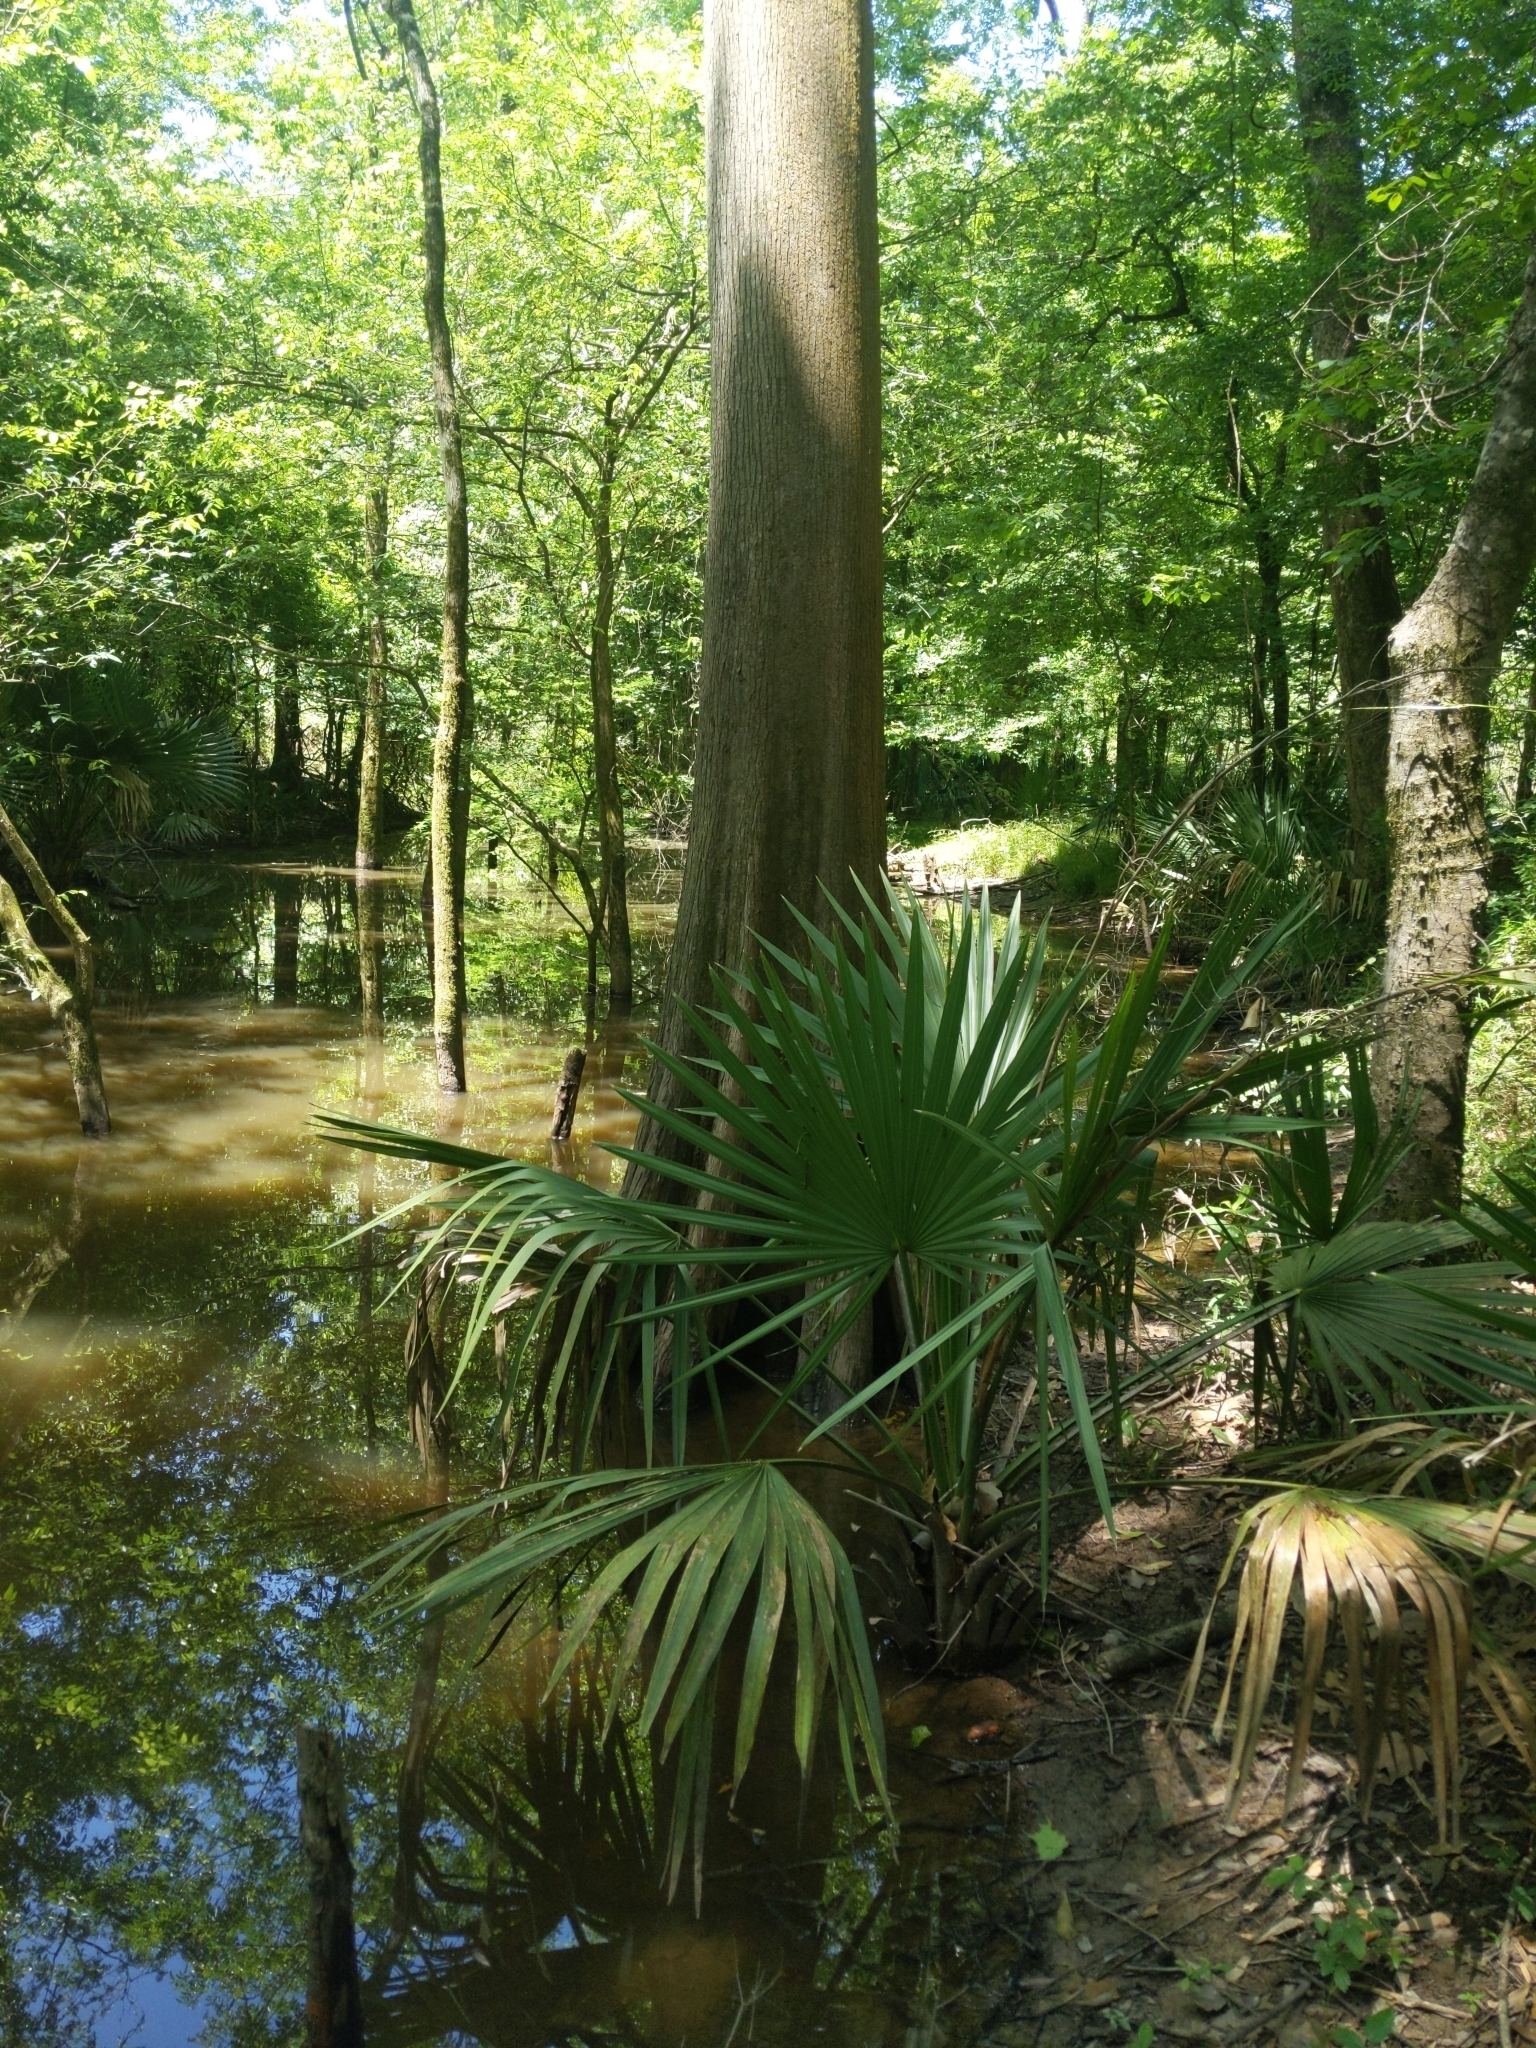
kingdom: Plantae
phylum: Tracheophyta
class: Liliopsida
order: Arecales
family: Arecaceae
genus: Sabal
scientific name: Sabal minor
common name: Dwarf palmetto
